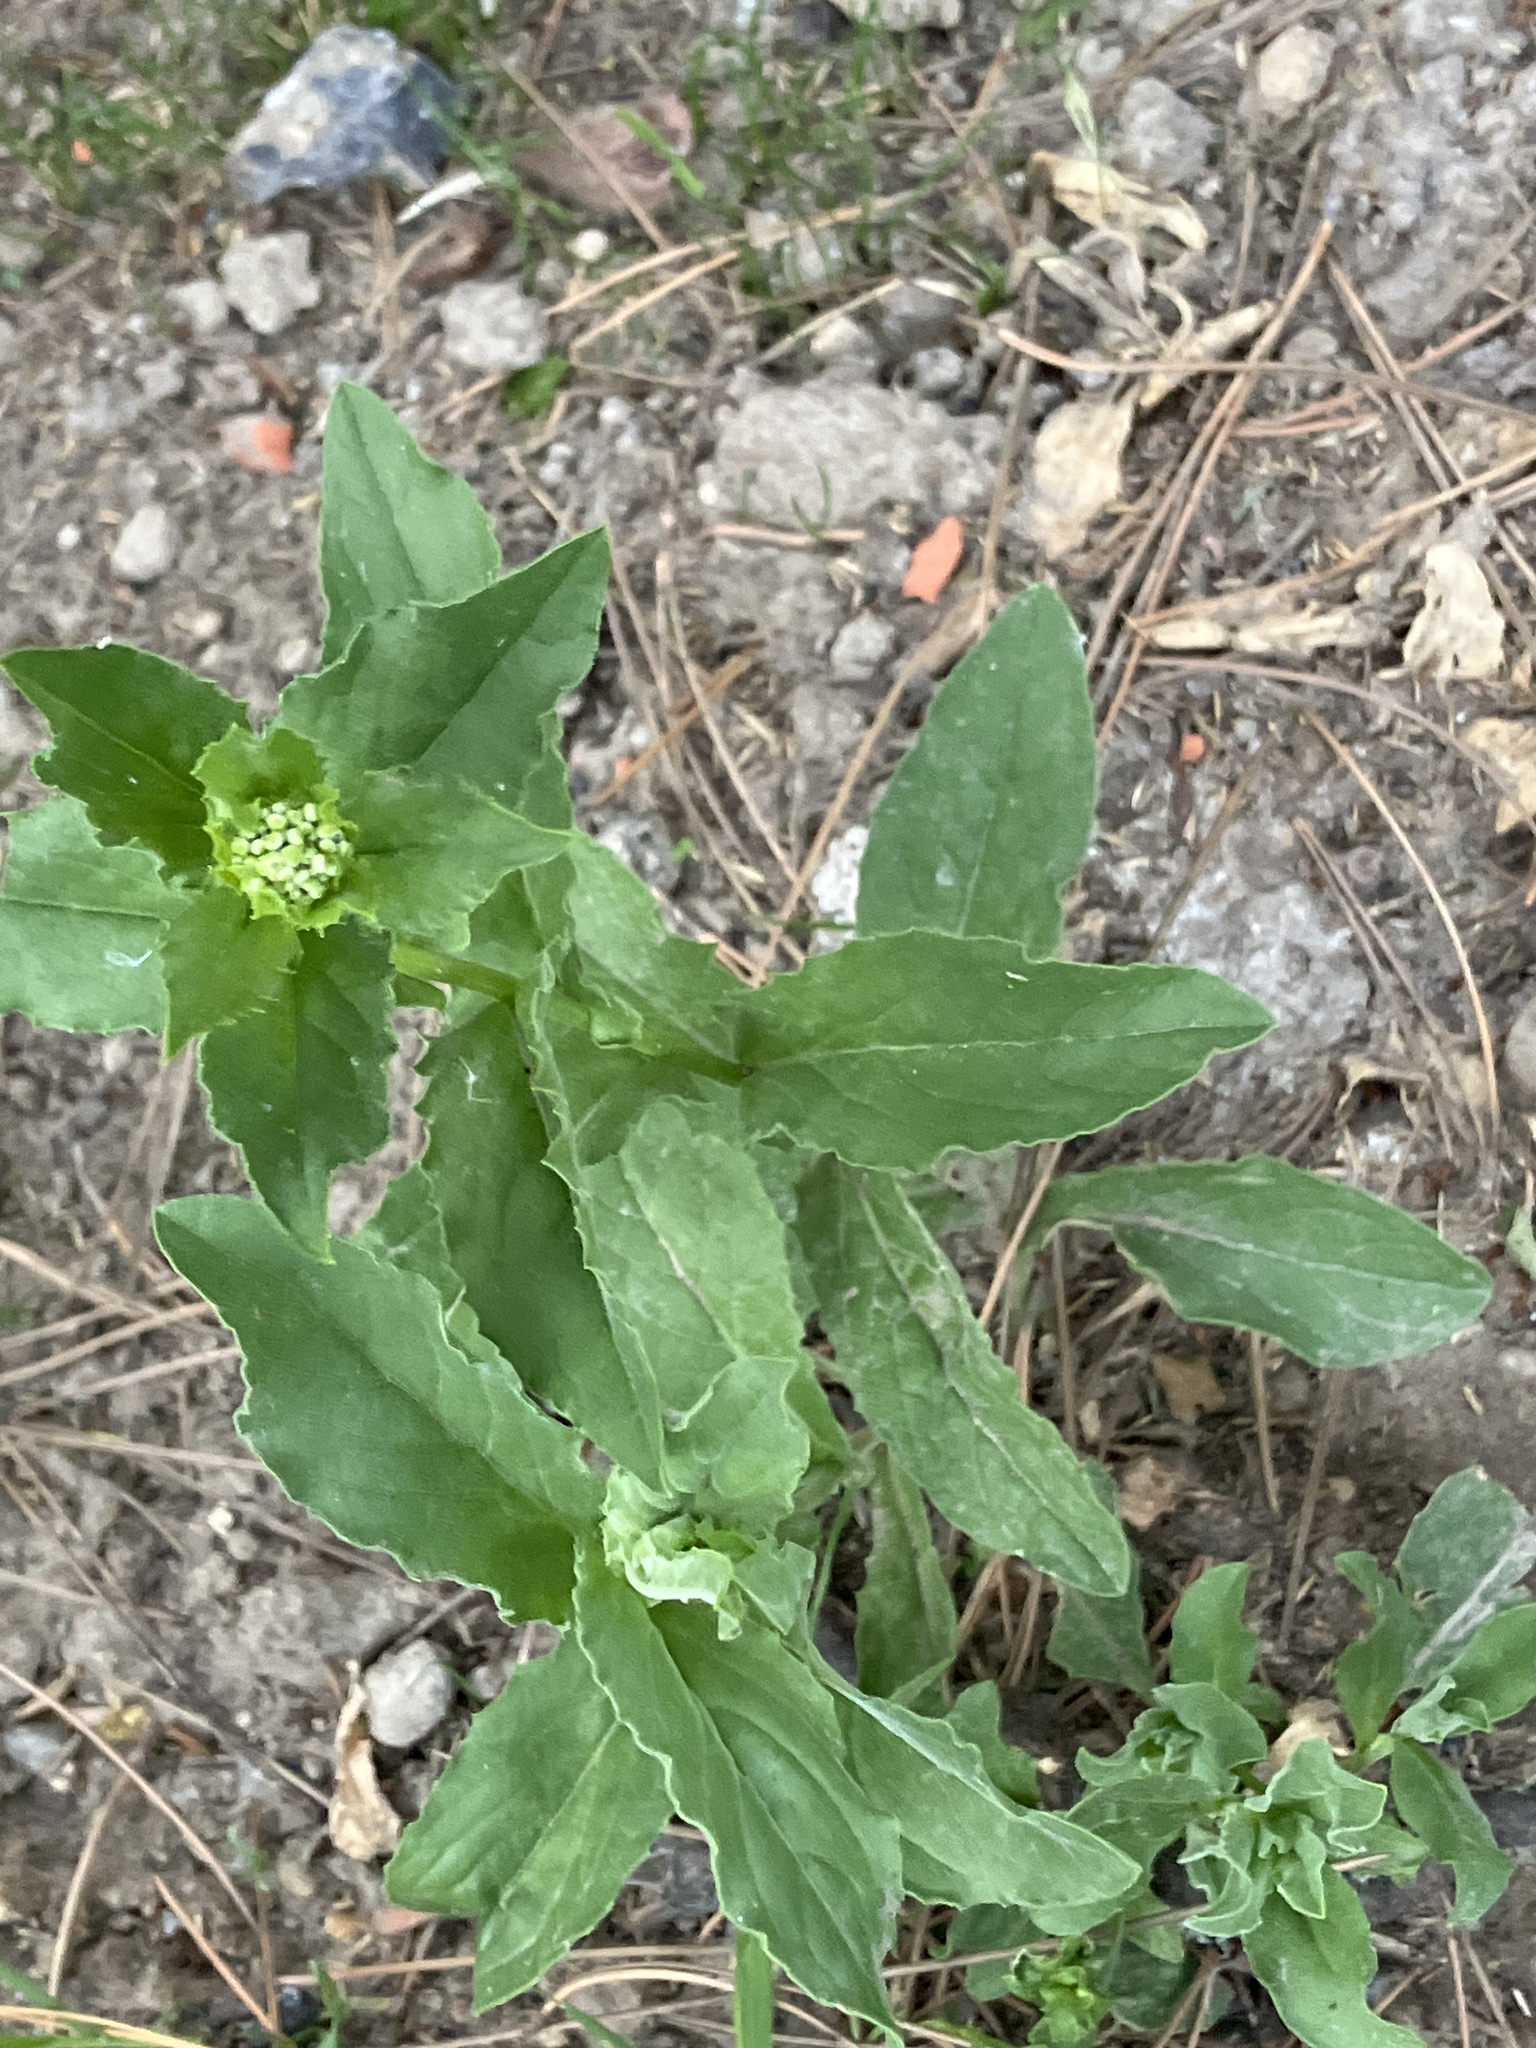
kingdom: Plantae
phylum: Tracheophyta
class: Magnoliopsida
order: Brassicales
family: Brassicaceae
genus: Lepidium
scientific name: Lepidium draba
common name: Hoary cress
